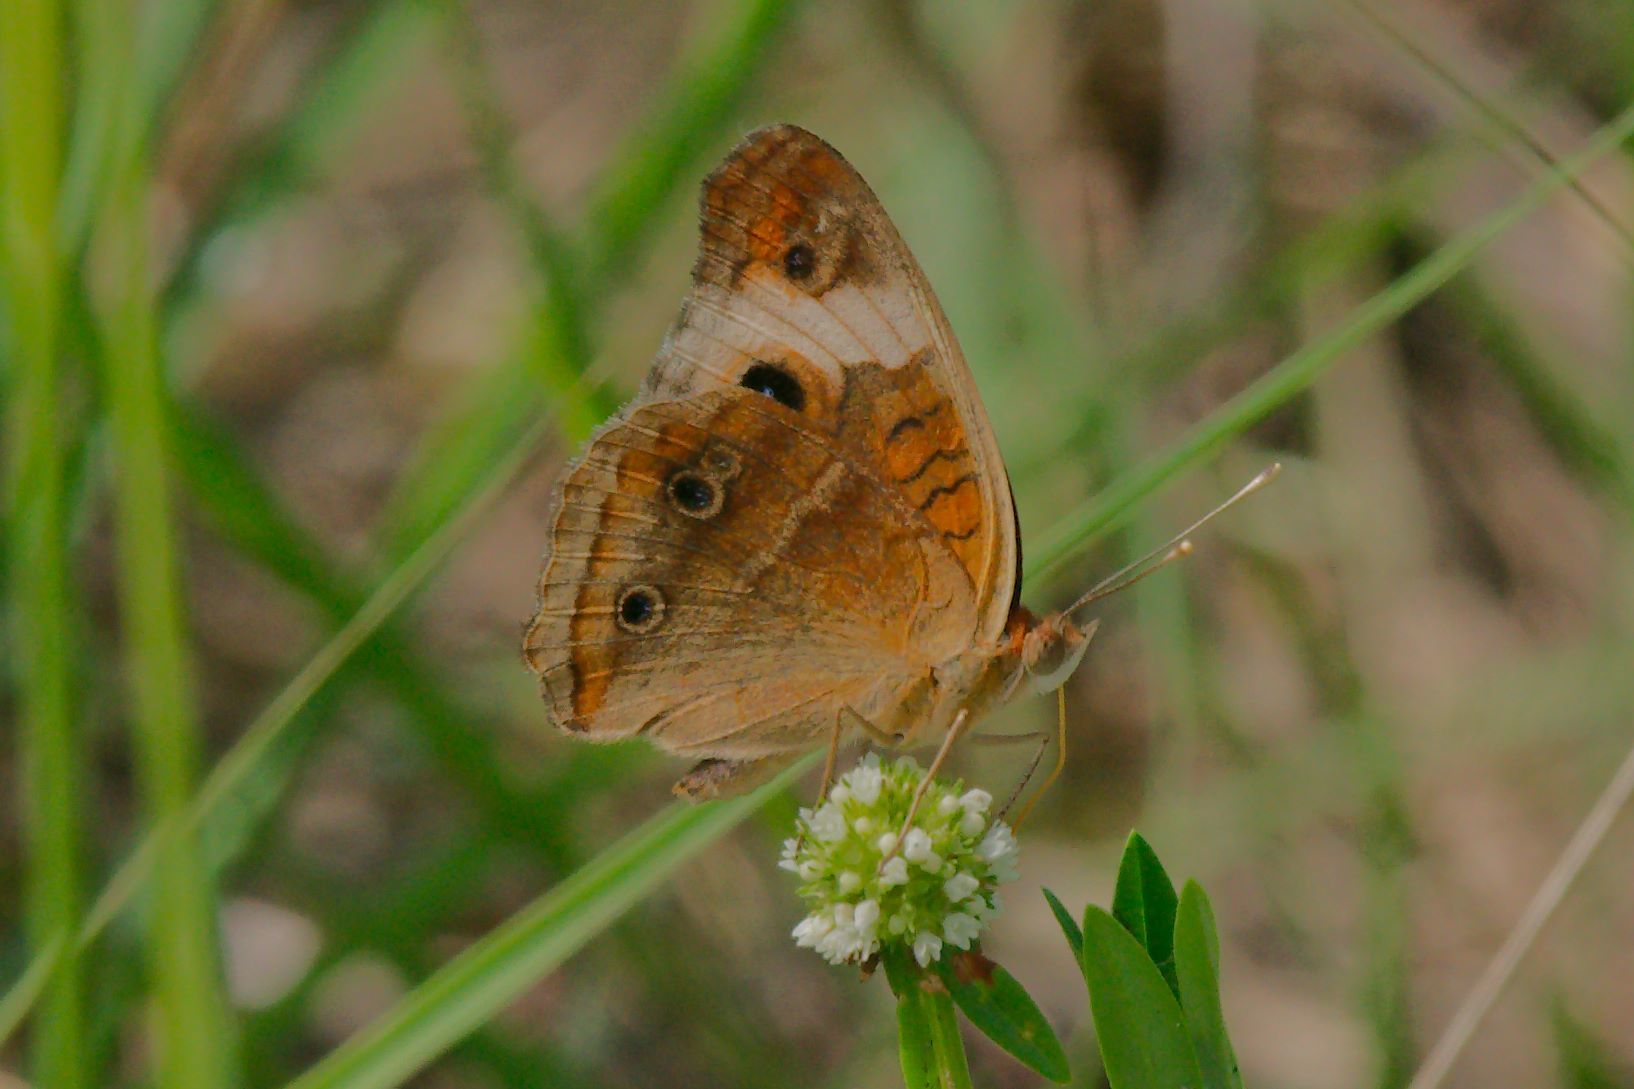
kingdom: Animalia
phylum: Arthropoda
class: Insecta
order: Lepidoptera
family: Nymphalidae
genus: Junonia
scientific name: Junonia lavinia
